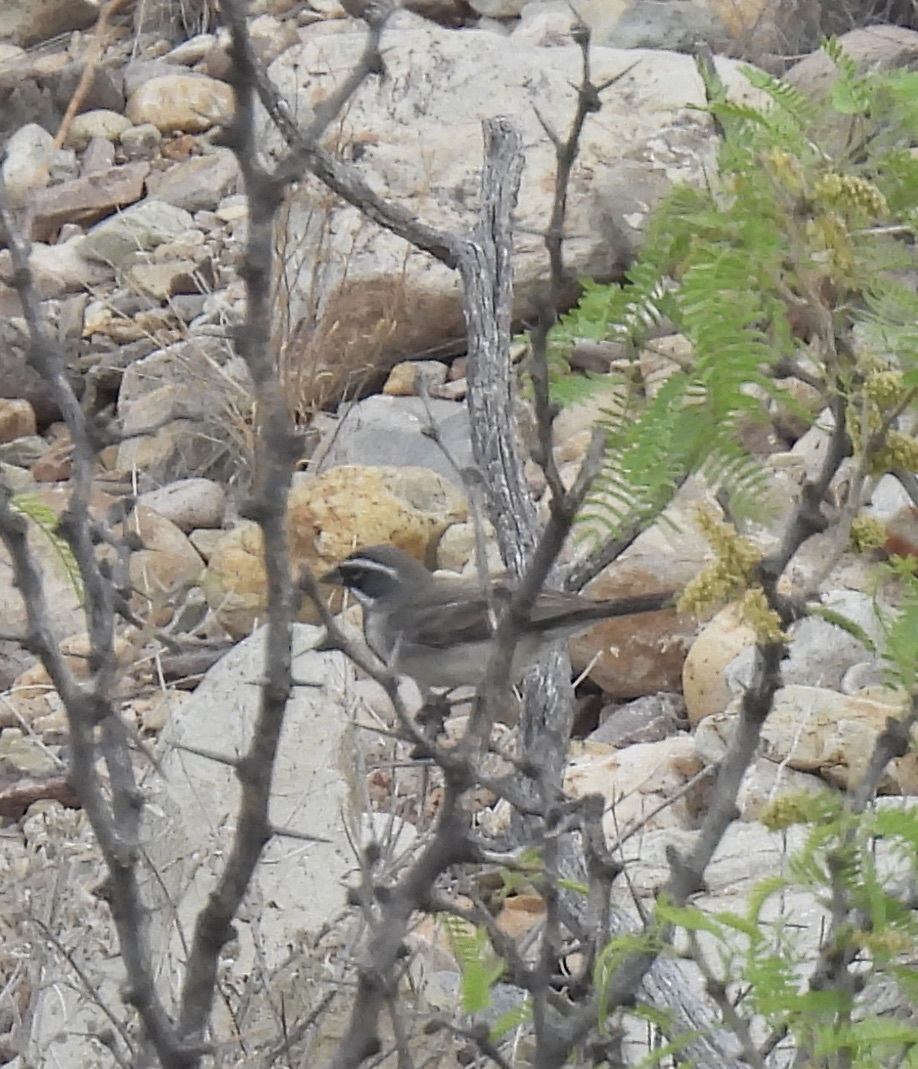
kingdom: Animalia
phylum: Chordata
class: Aves
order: Passeriformes
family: Passerellidae
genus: Amphispiza
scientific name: Amphispiza bilineata
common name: Black-throated sparrow
